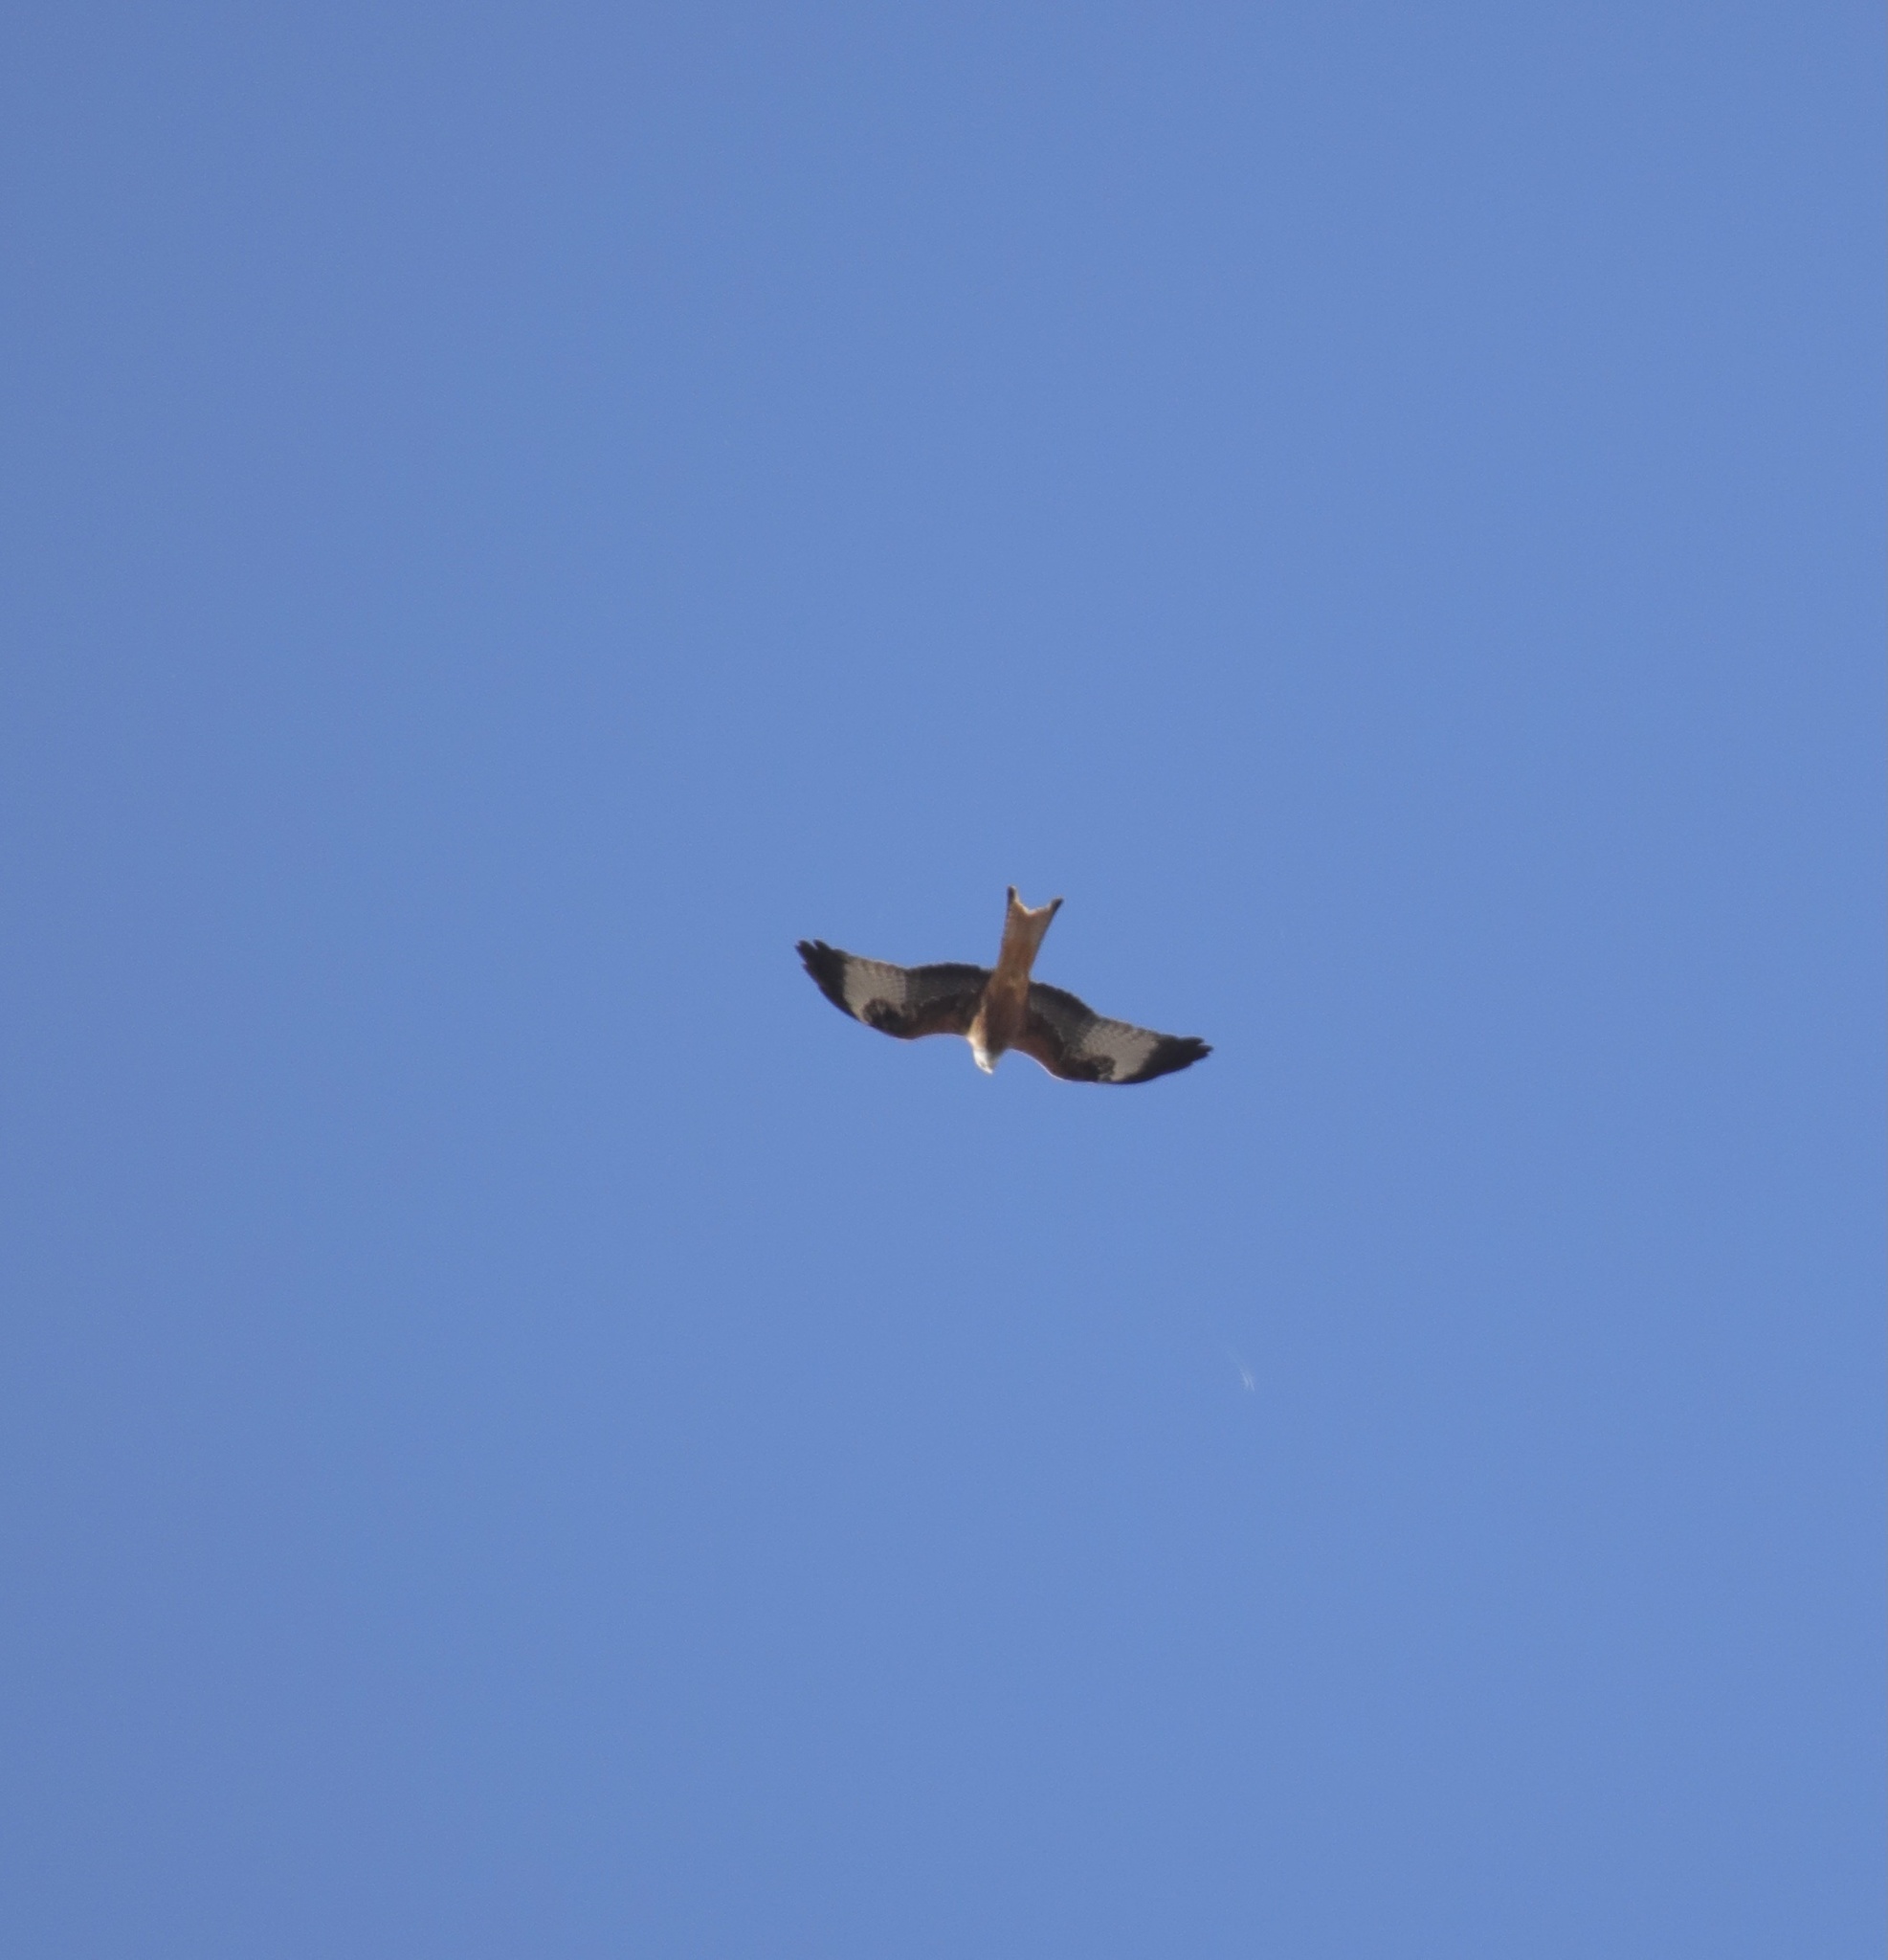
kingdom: Animalia
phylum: Chordata
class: Aves
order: Accipitriformes
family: Accipitridae
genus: Milvus
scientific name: Milvus milvus
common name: Red kite
